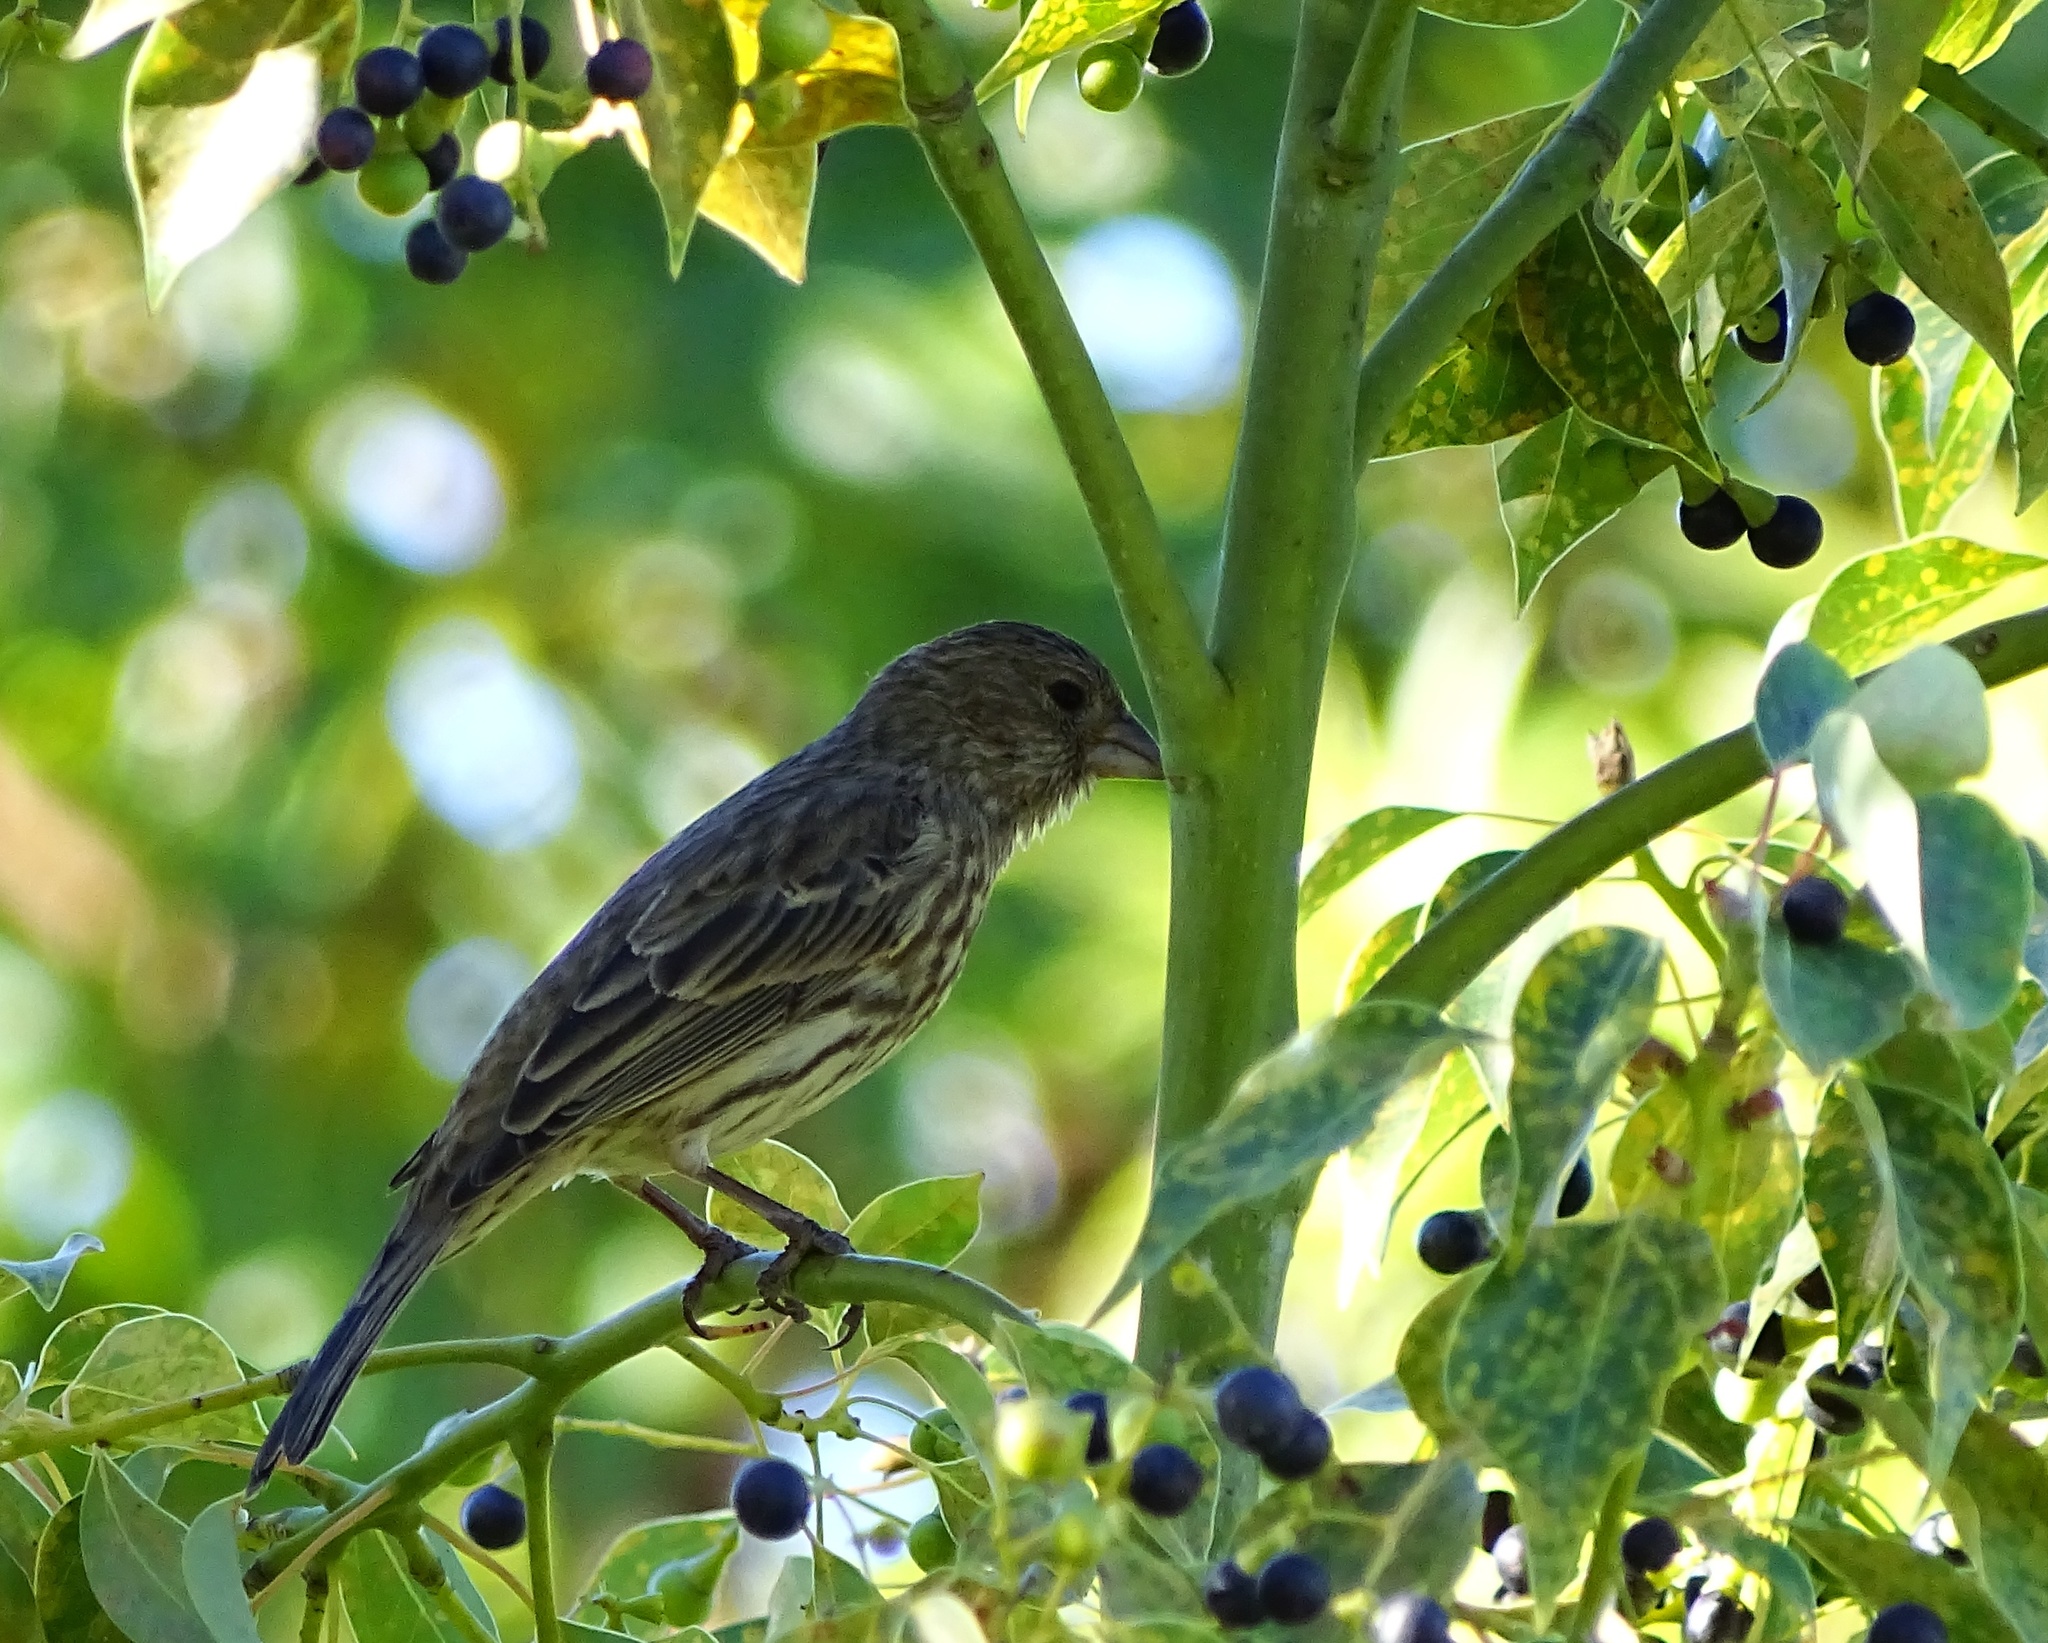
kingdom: Animalia
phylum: Chordata
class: Aves
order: Passeriformes
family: Fringillidae
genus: Haemorhous
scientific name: Haemorhous mexicanus
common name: House finch
